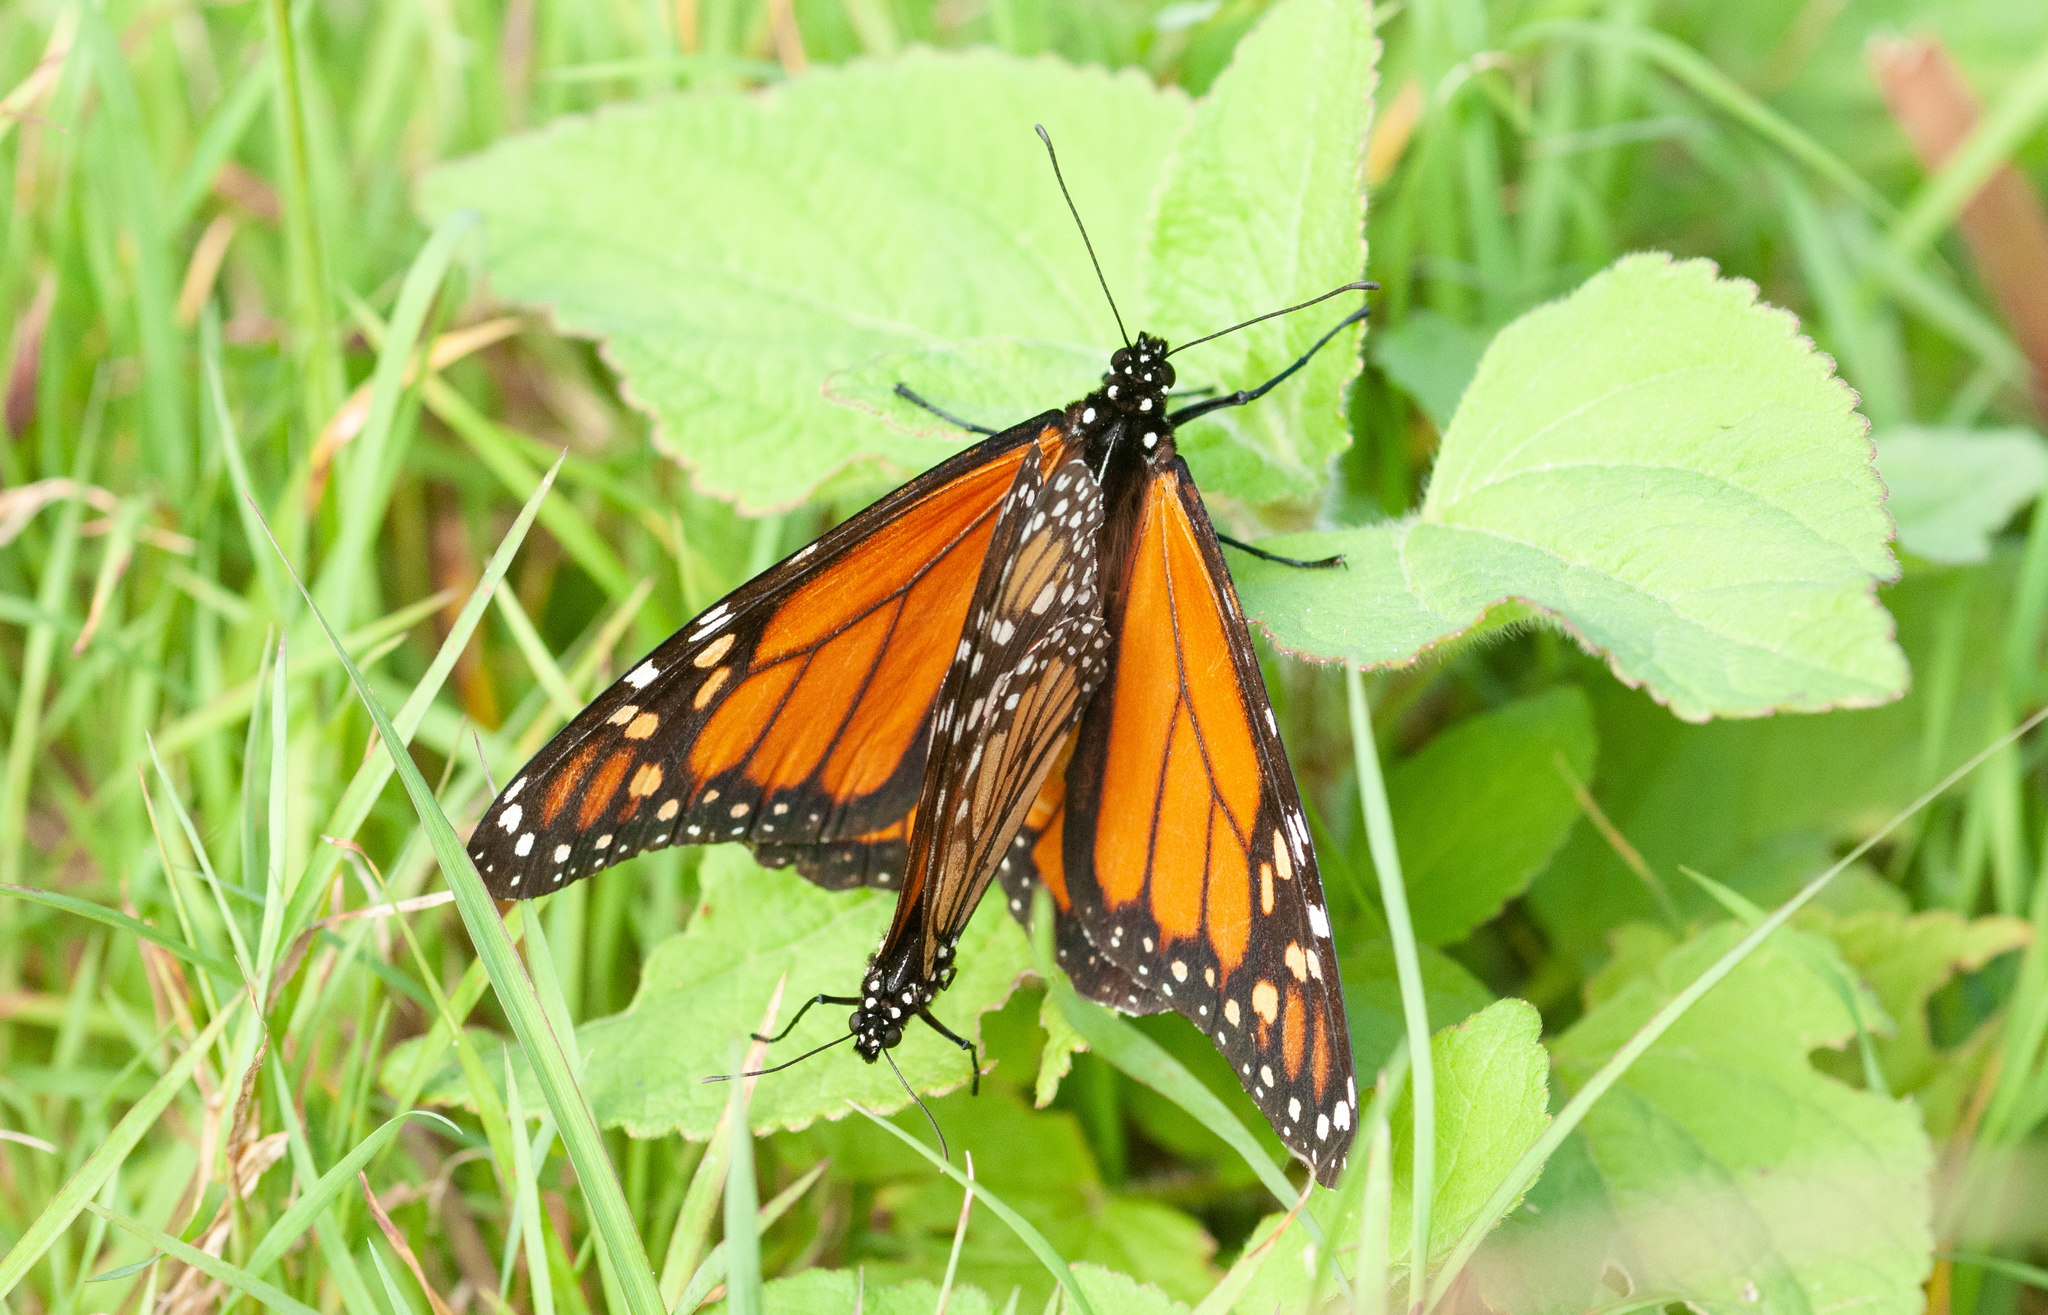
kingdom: Animalia
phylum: Arthropoda
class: Insecta
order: Lepidoptera
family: Nymphalidae
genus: Danaus
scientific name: Danaus plexippus
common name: Monarch
